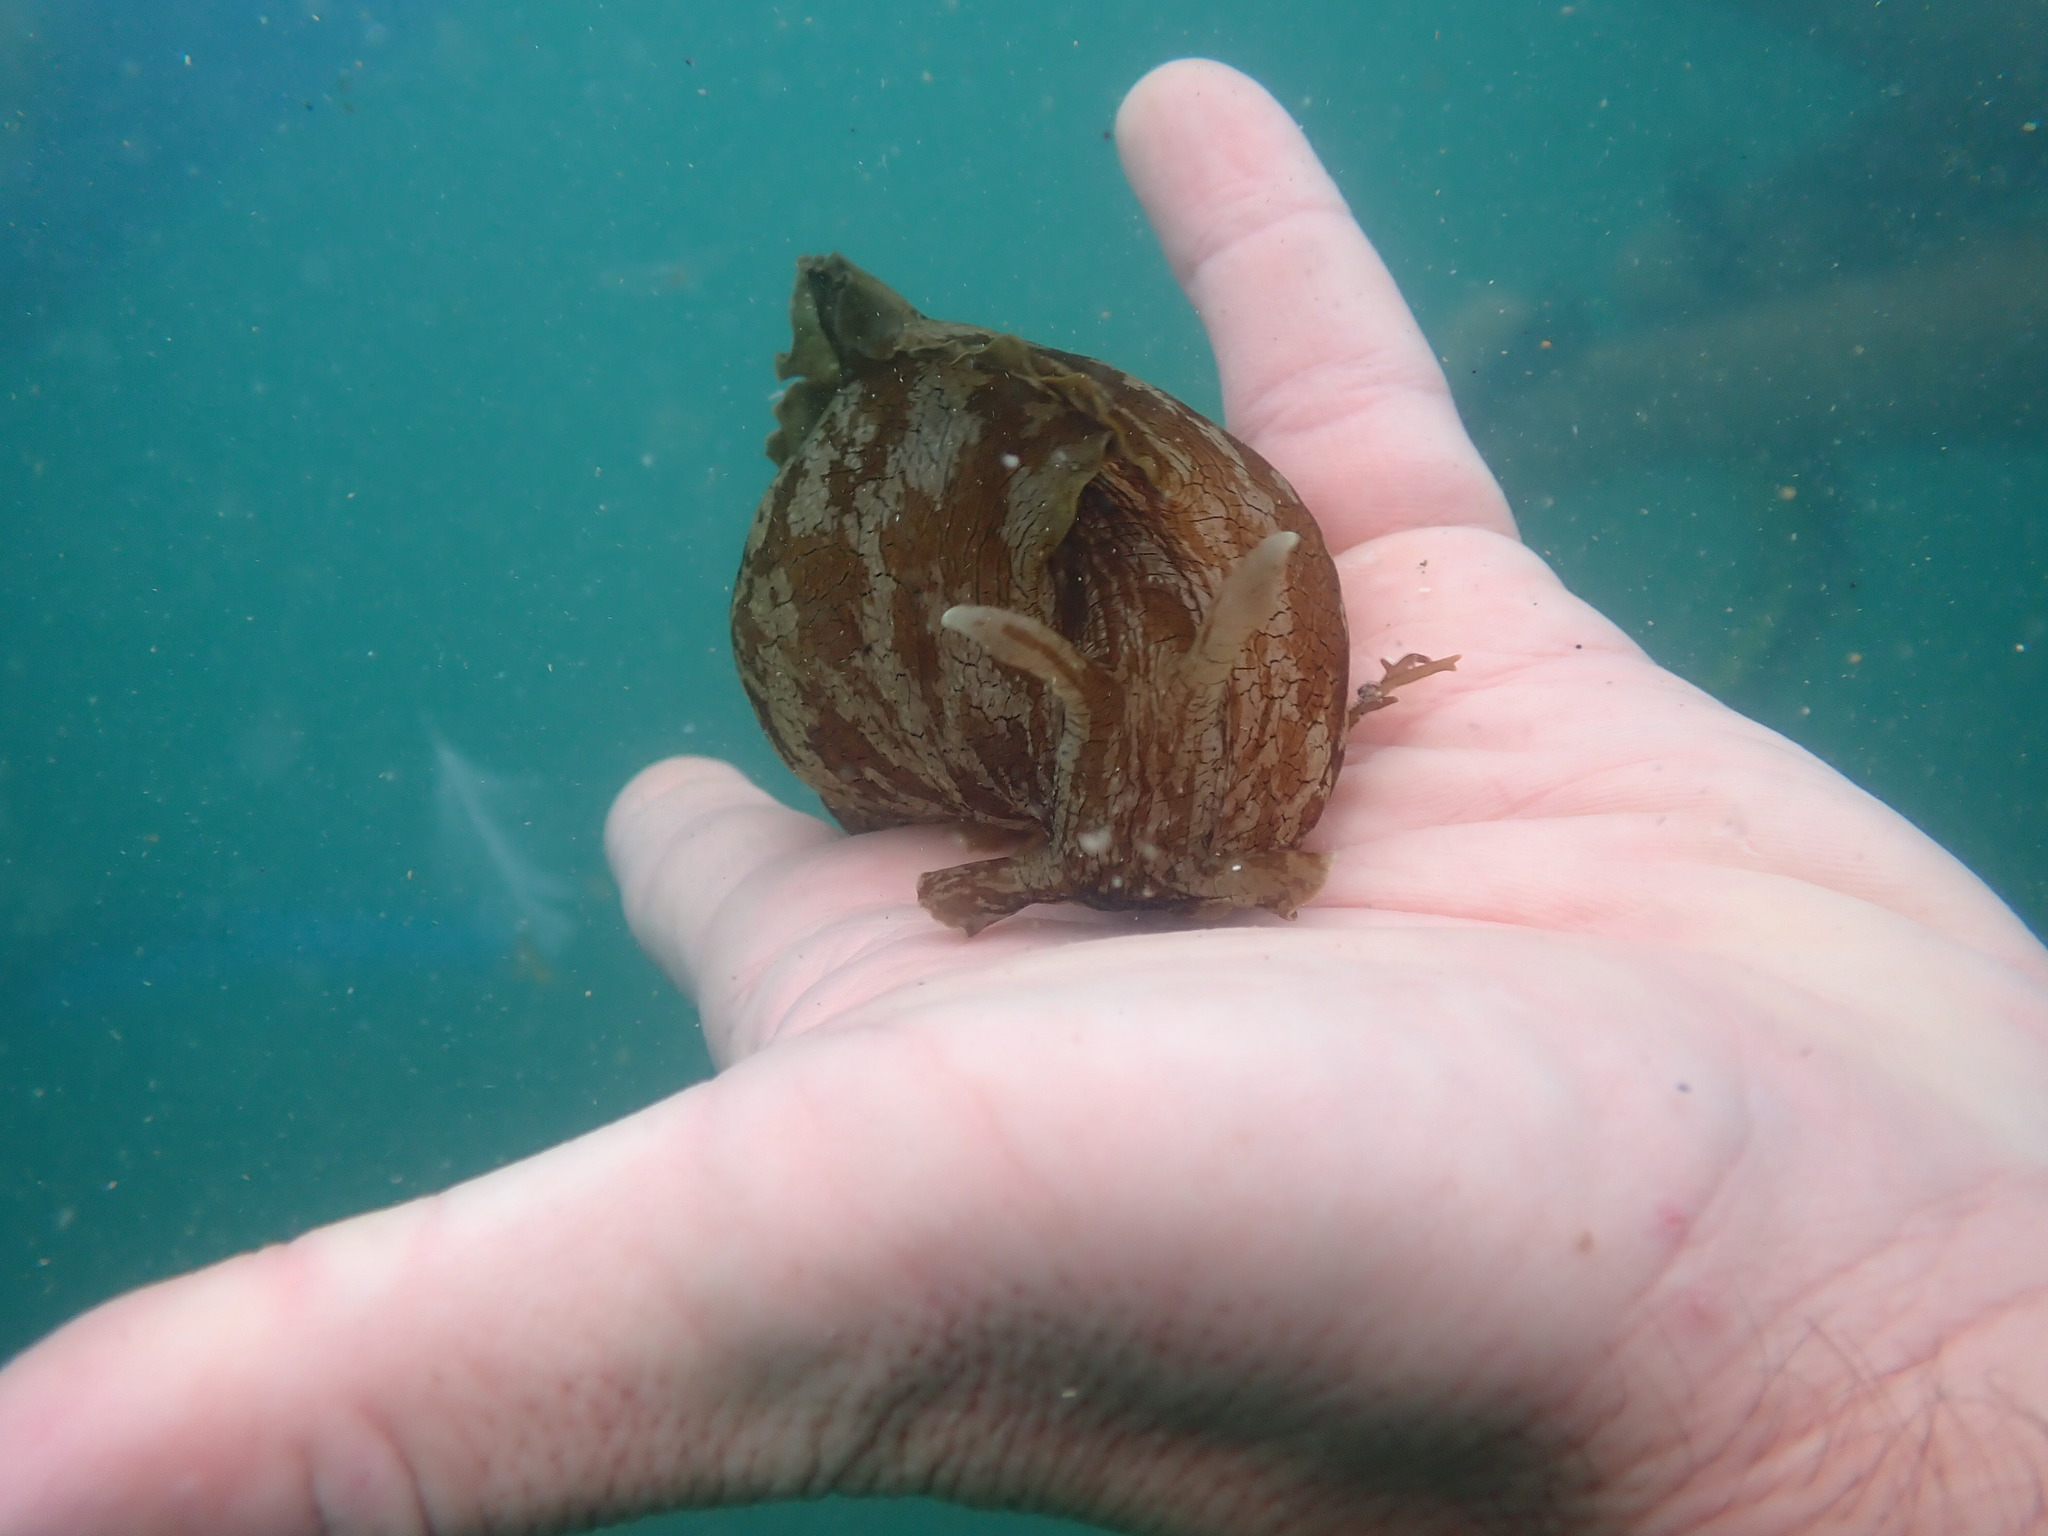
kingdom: Animalia
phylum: Mollusca
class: Gastropoda
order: Aplysiida
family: Aplysiidae
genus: Aplysia
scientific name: Aplysia keraudreni
